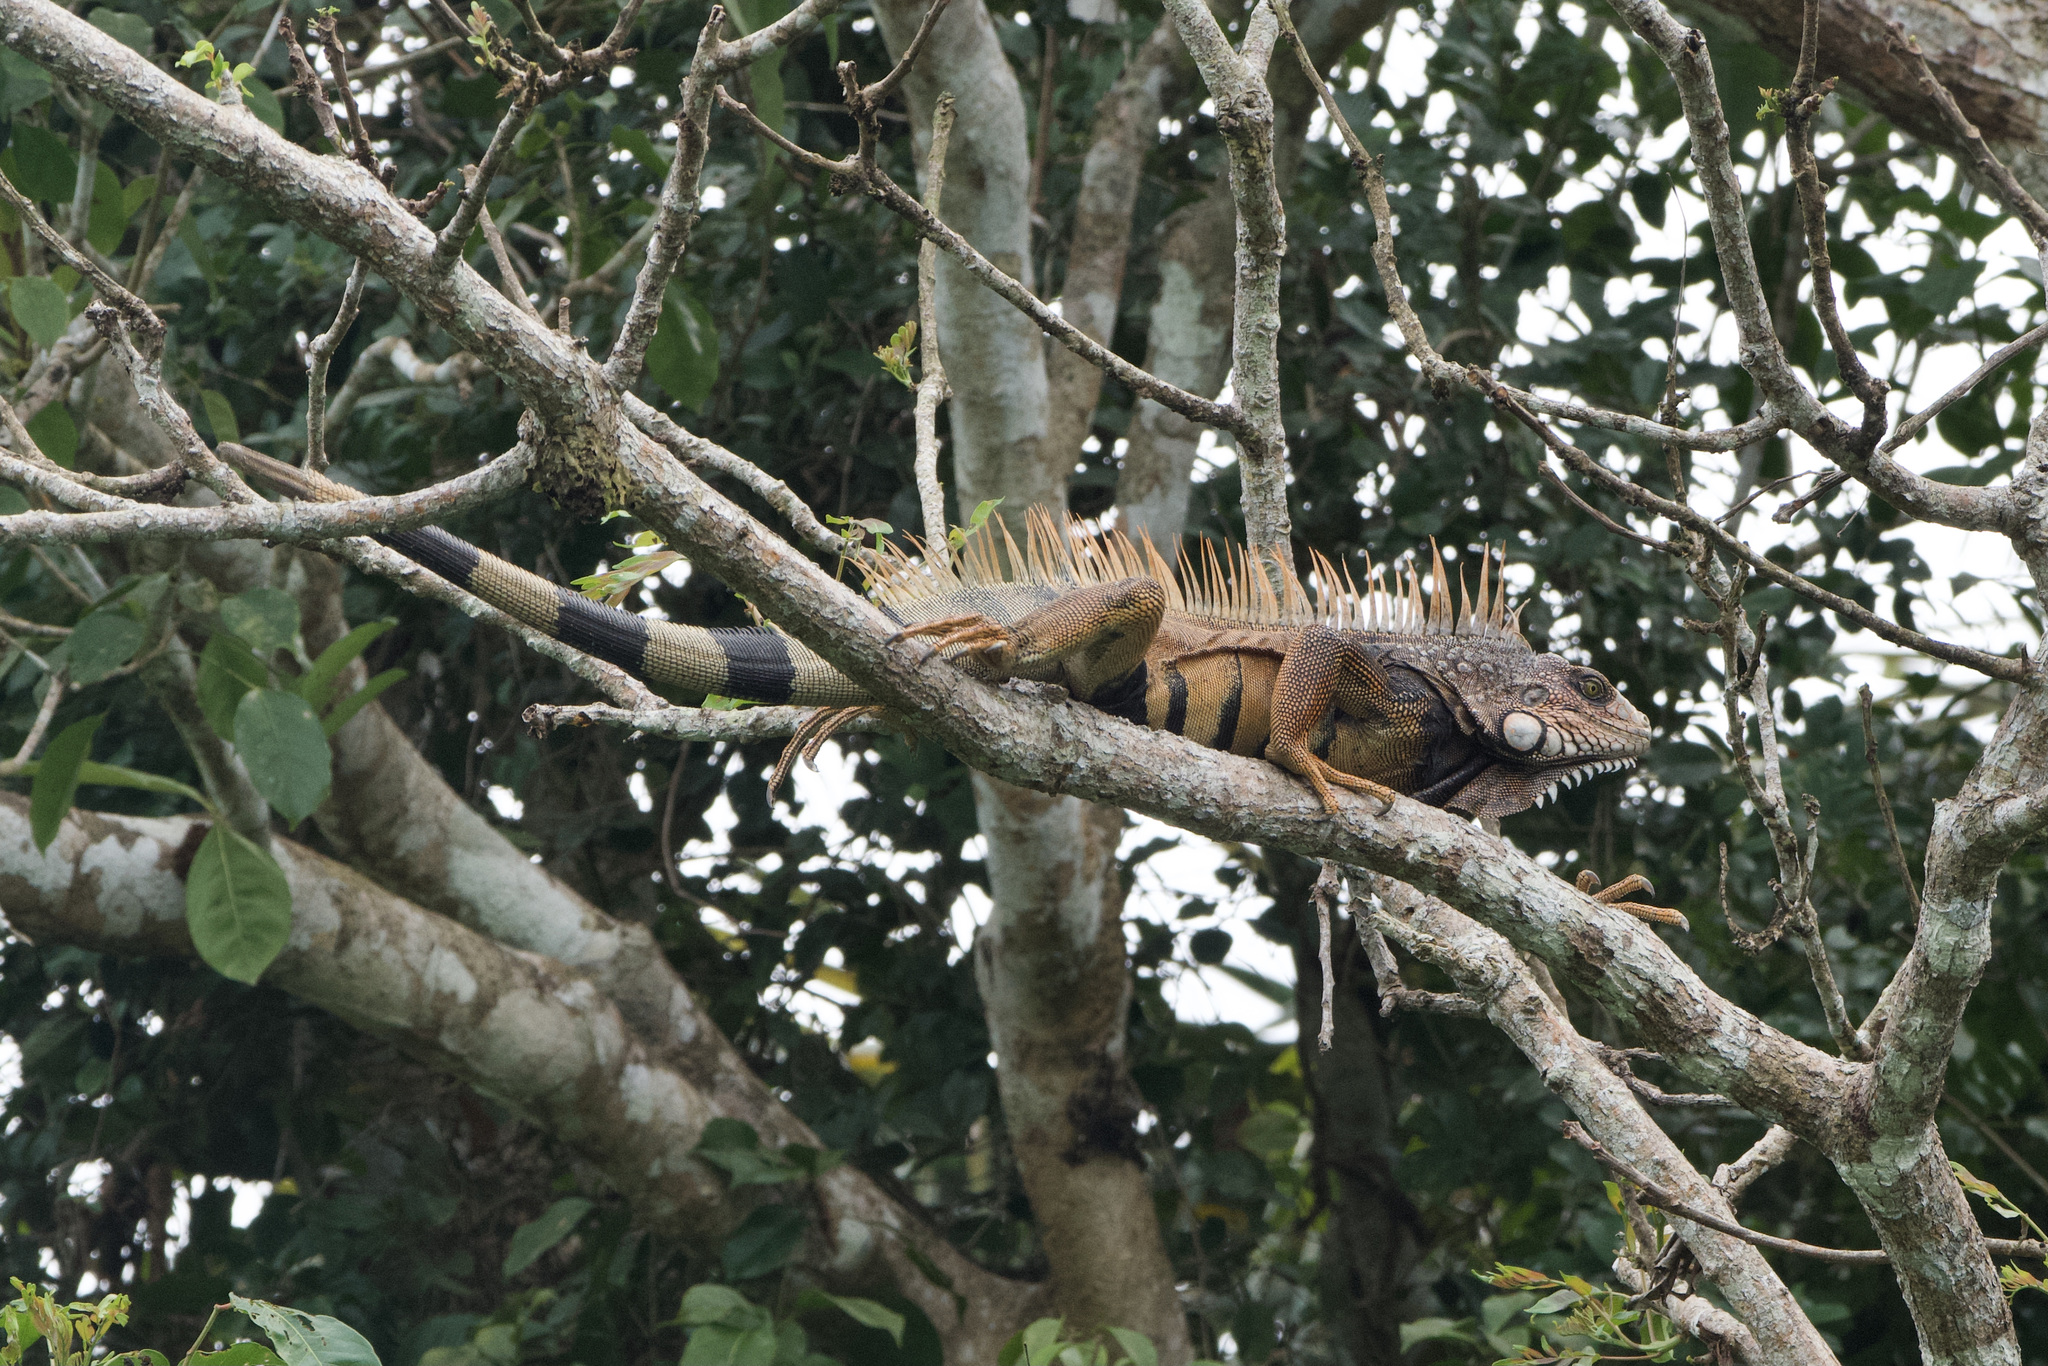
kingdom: Animalia
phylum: Chordata
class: Squamata
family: Iguanidae
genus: Iguana
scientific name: Iguana iguana
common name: Green iguana
